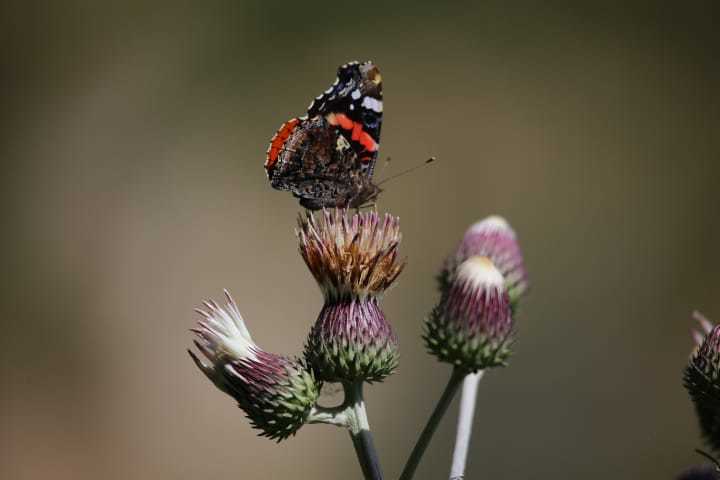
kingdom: Animalia
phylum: Arthropoda
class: Insecta
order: Lepidoptera
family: Nymphalidae
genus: Vanessa
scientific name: Vanessa atalanta
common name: Red admiral
